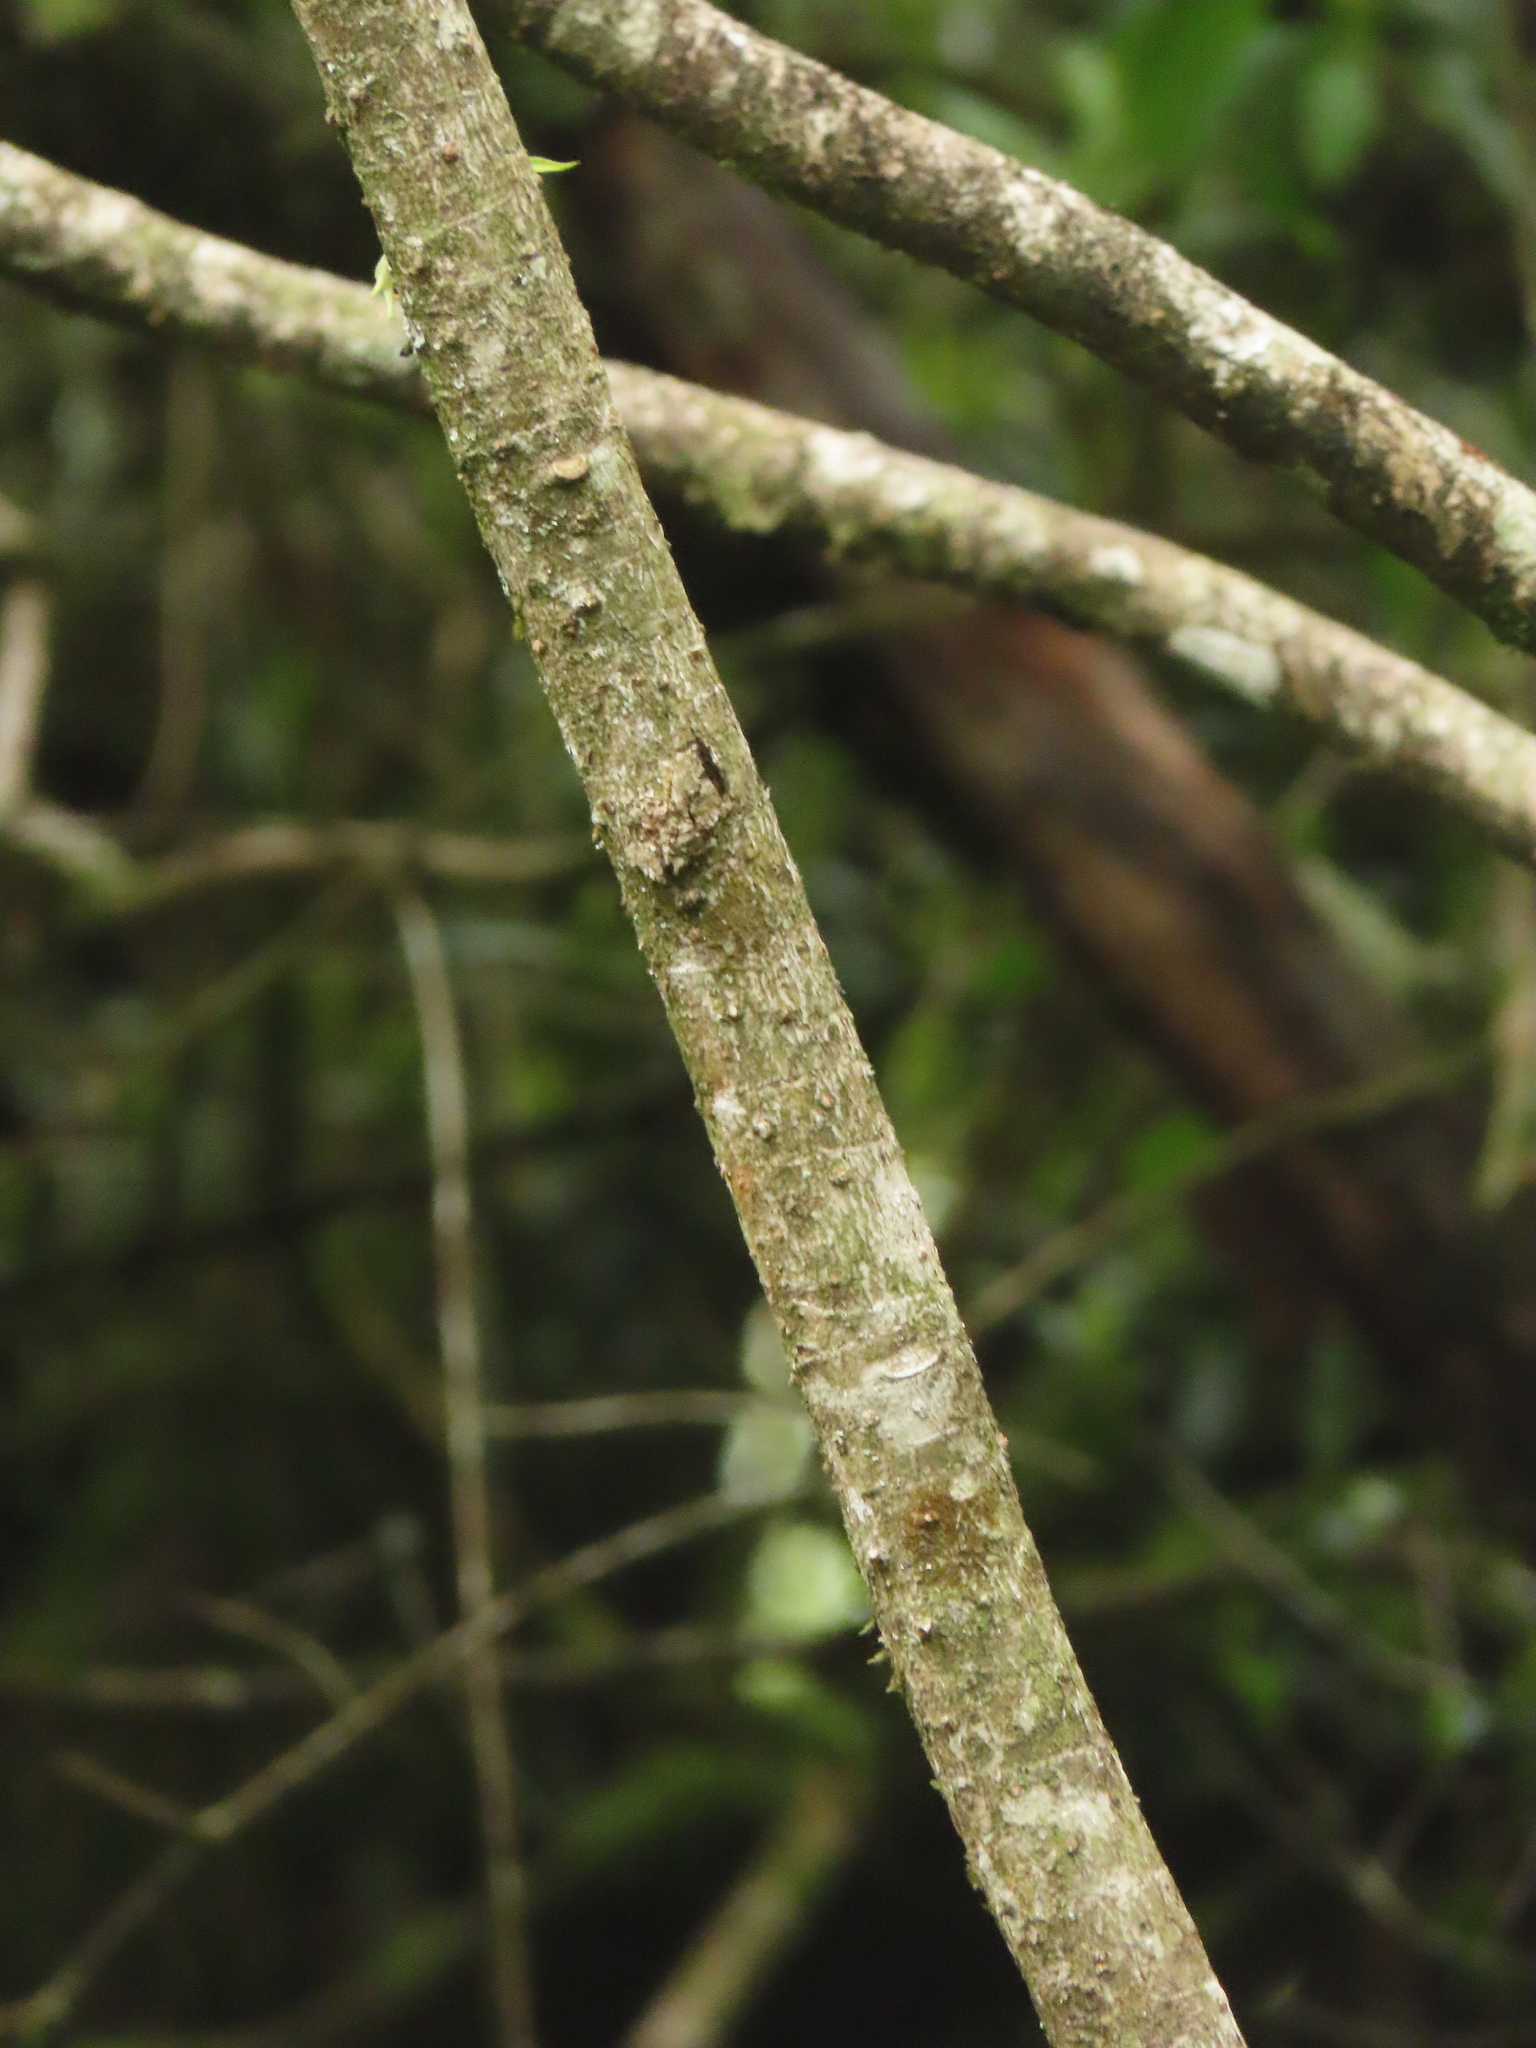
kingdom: Plantae
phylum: Tracheophyta
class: Magnoliopsida
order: Apiales
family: Araliaceae
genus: Heptapleurum
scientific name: Heptapleurum taiwanianum
